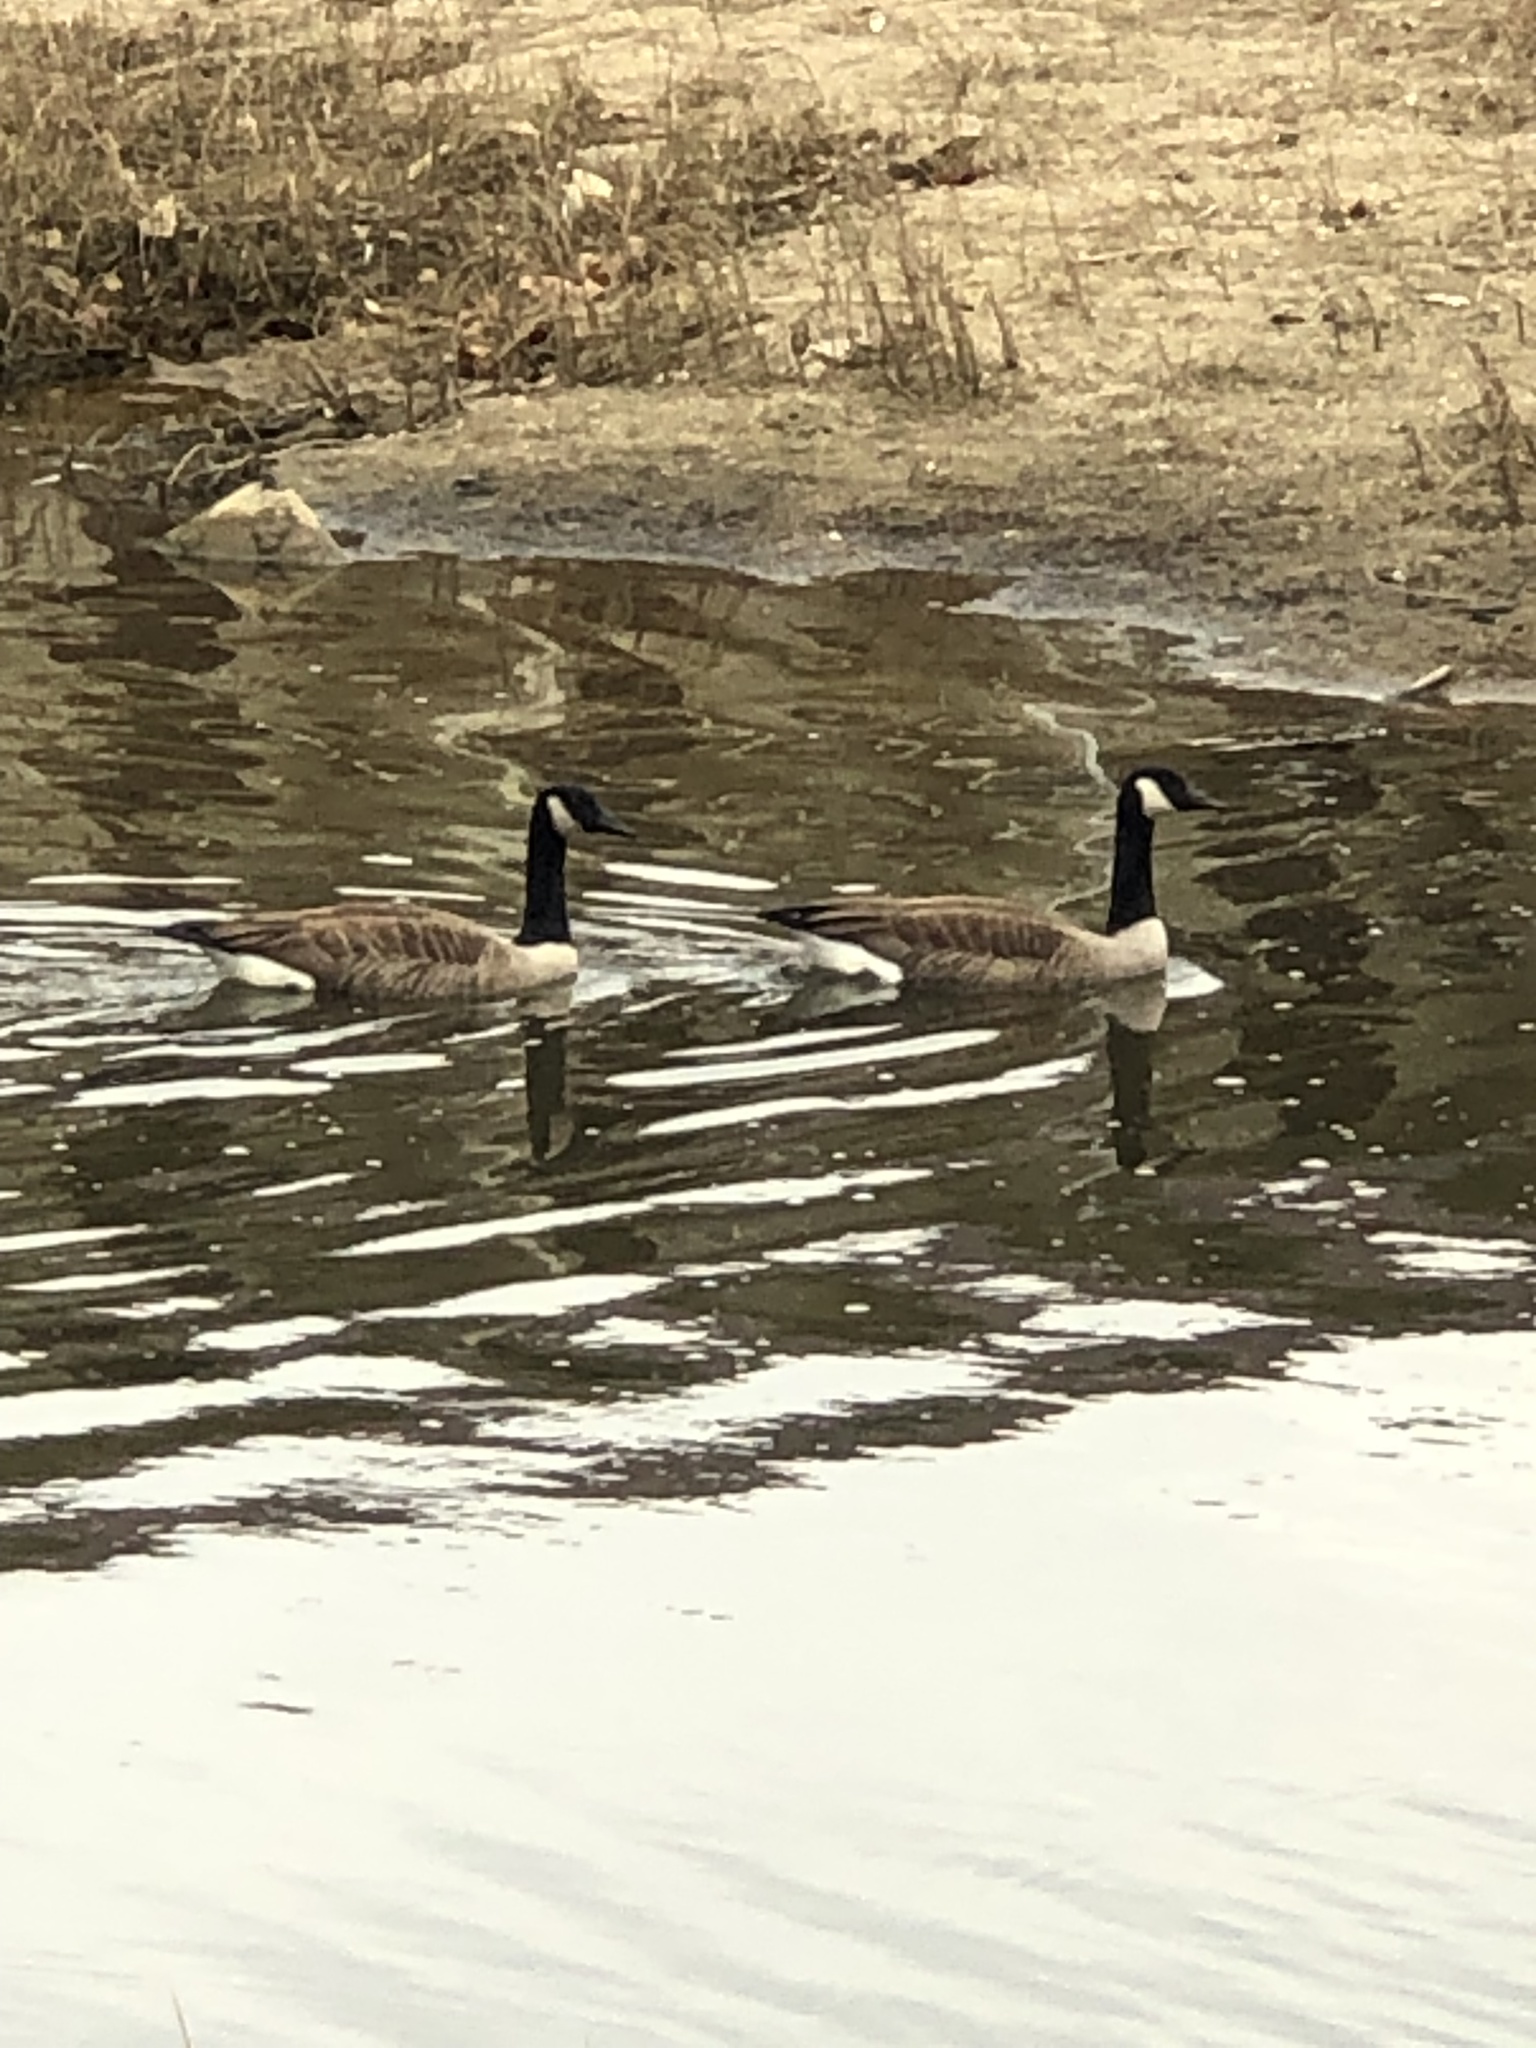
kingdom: Animalia
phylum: Chordata
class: Aves
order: Anseriformes
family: Anatidae
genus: Branta
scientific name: Branta canadensis
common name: Canada goose
